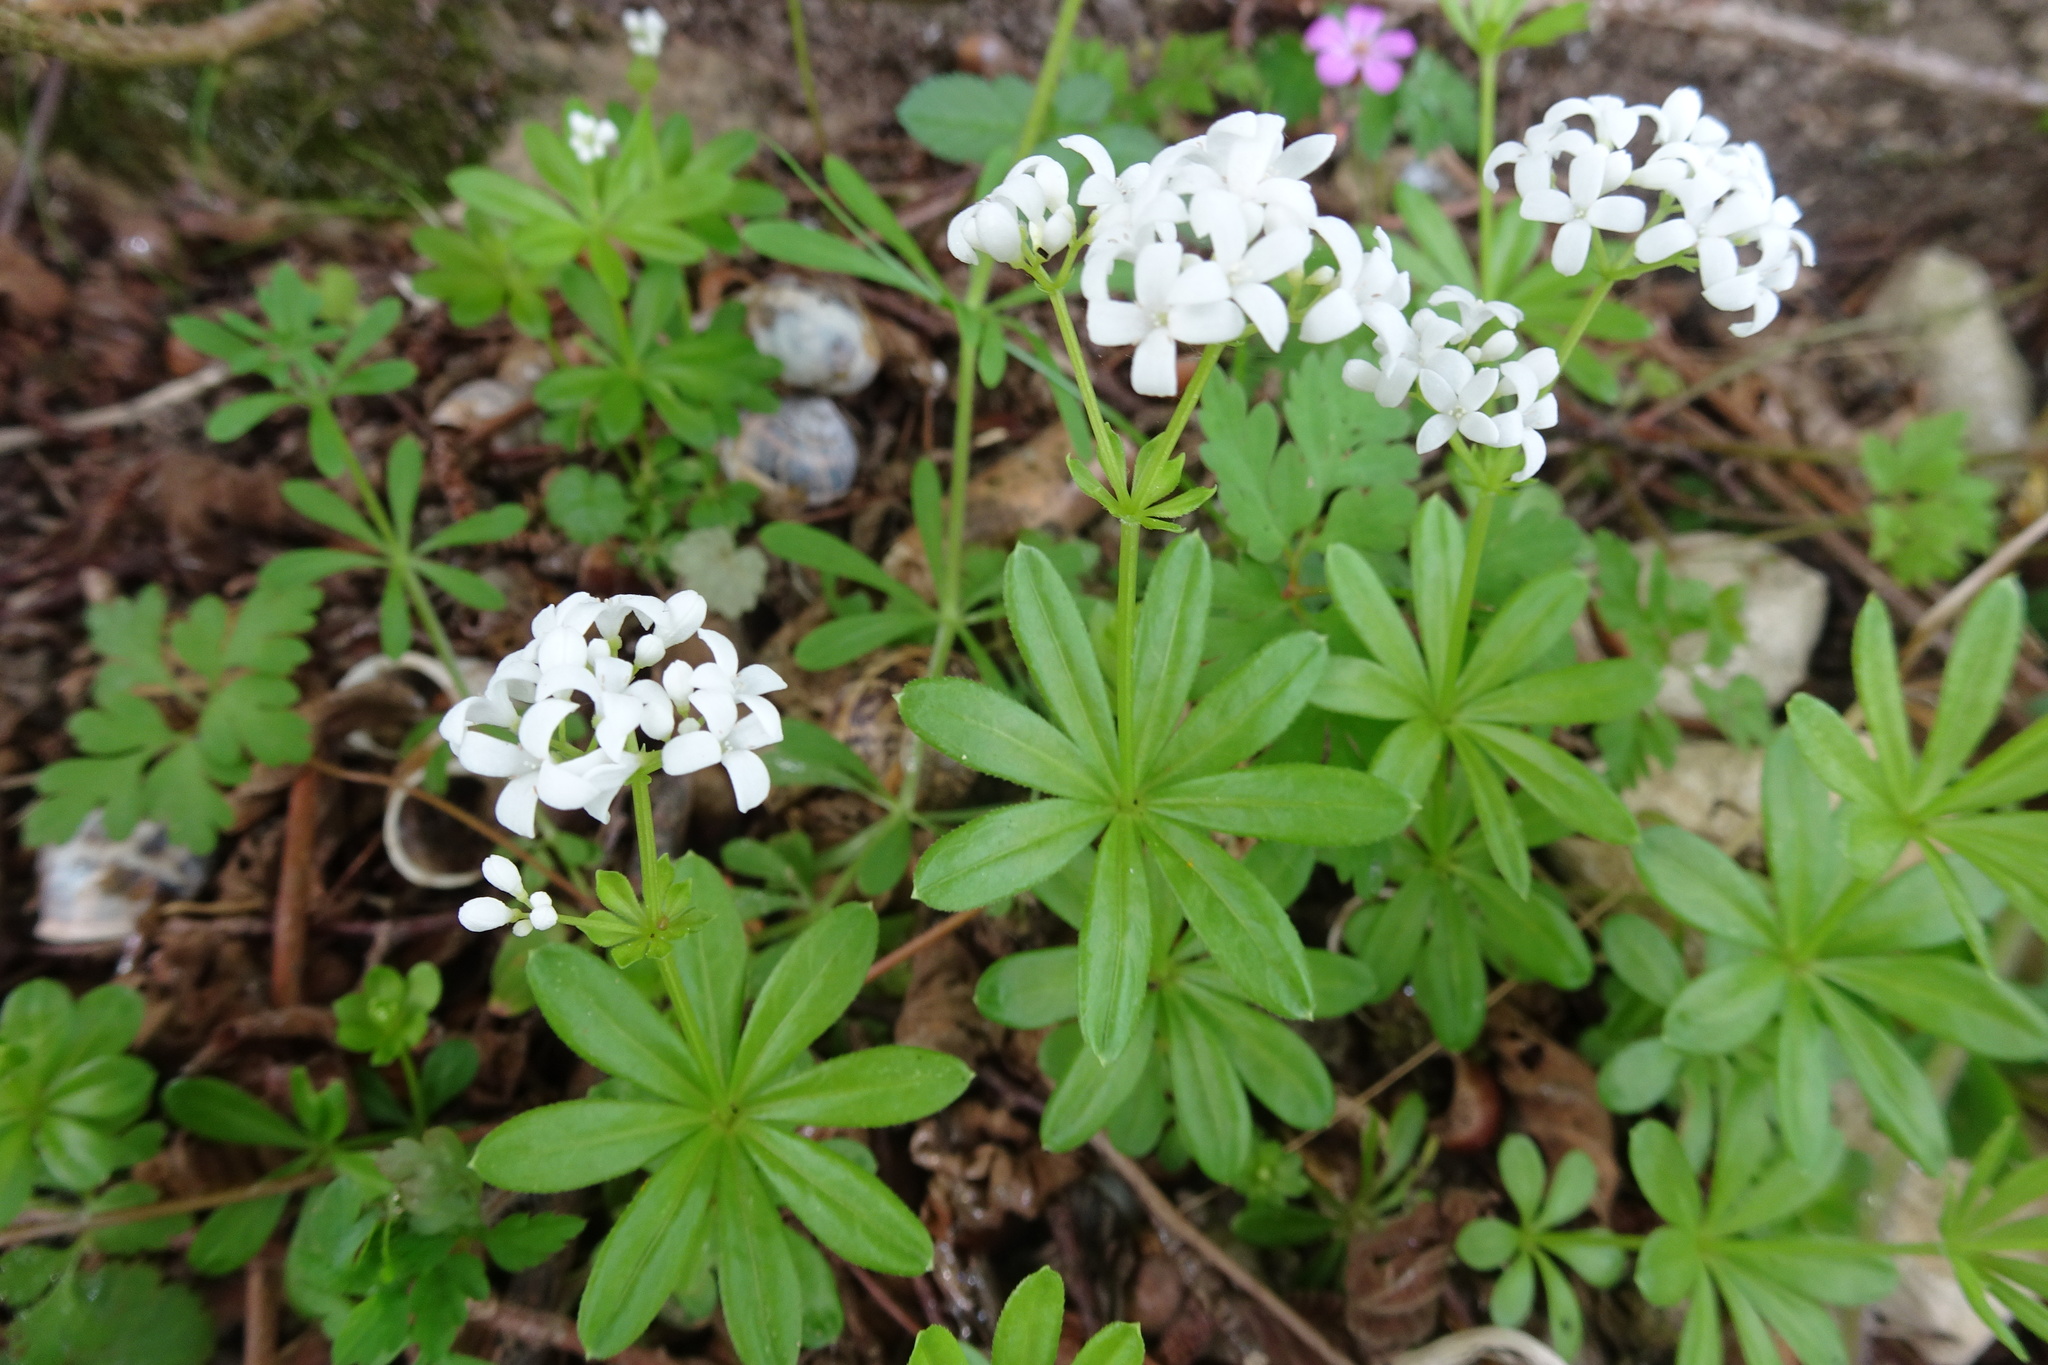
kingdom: Plantae
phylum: Tracheophyta
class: Magnoliopsida
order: Gentianales
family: Rubiaceae
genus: Galium
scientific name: Galium odoratum
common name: Sweet woodruff
